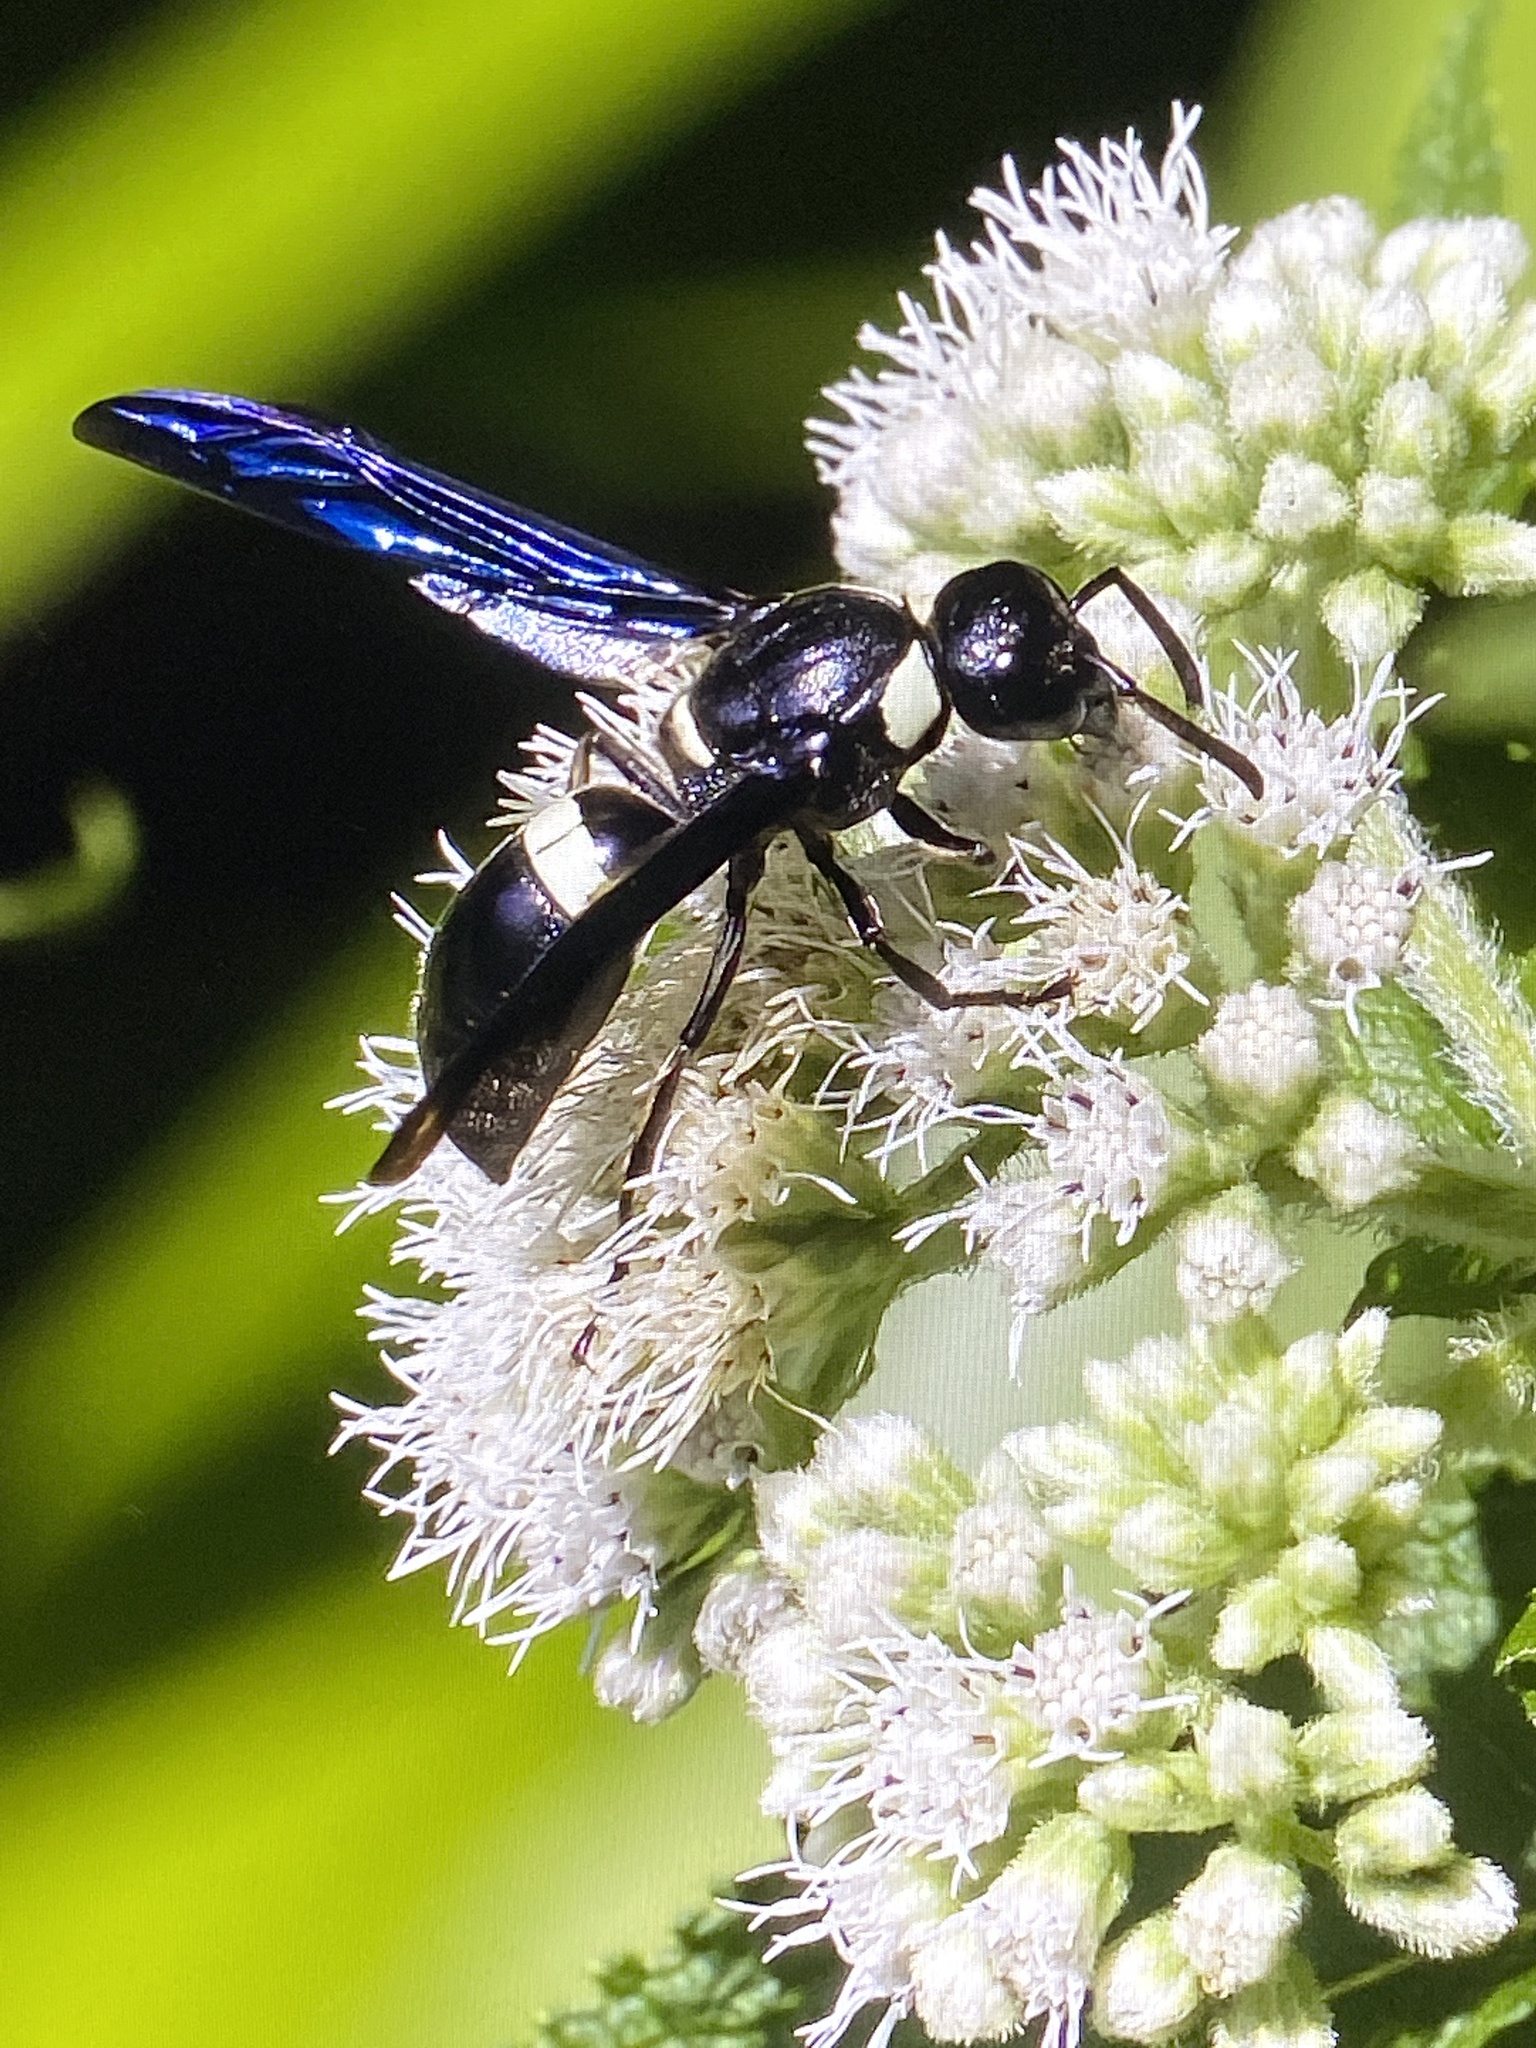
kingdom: Animalia
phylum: Arthropoda
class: Insecta
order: Hymenoptera
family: Eumenidae
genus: Monobia
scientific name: Monobia quadridens
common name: Four-toothed mason wasp
